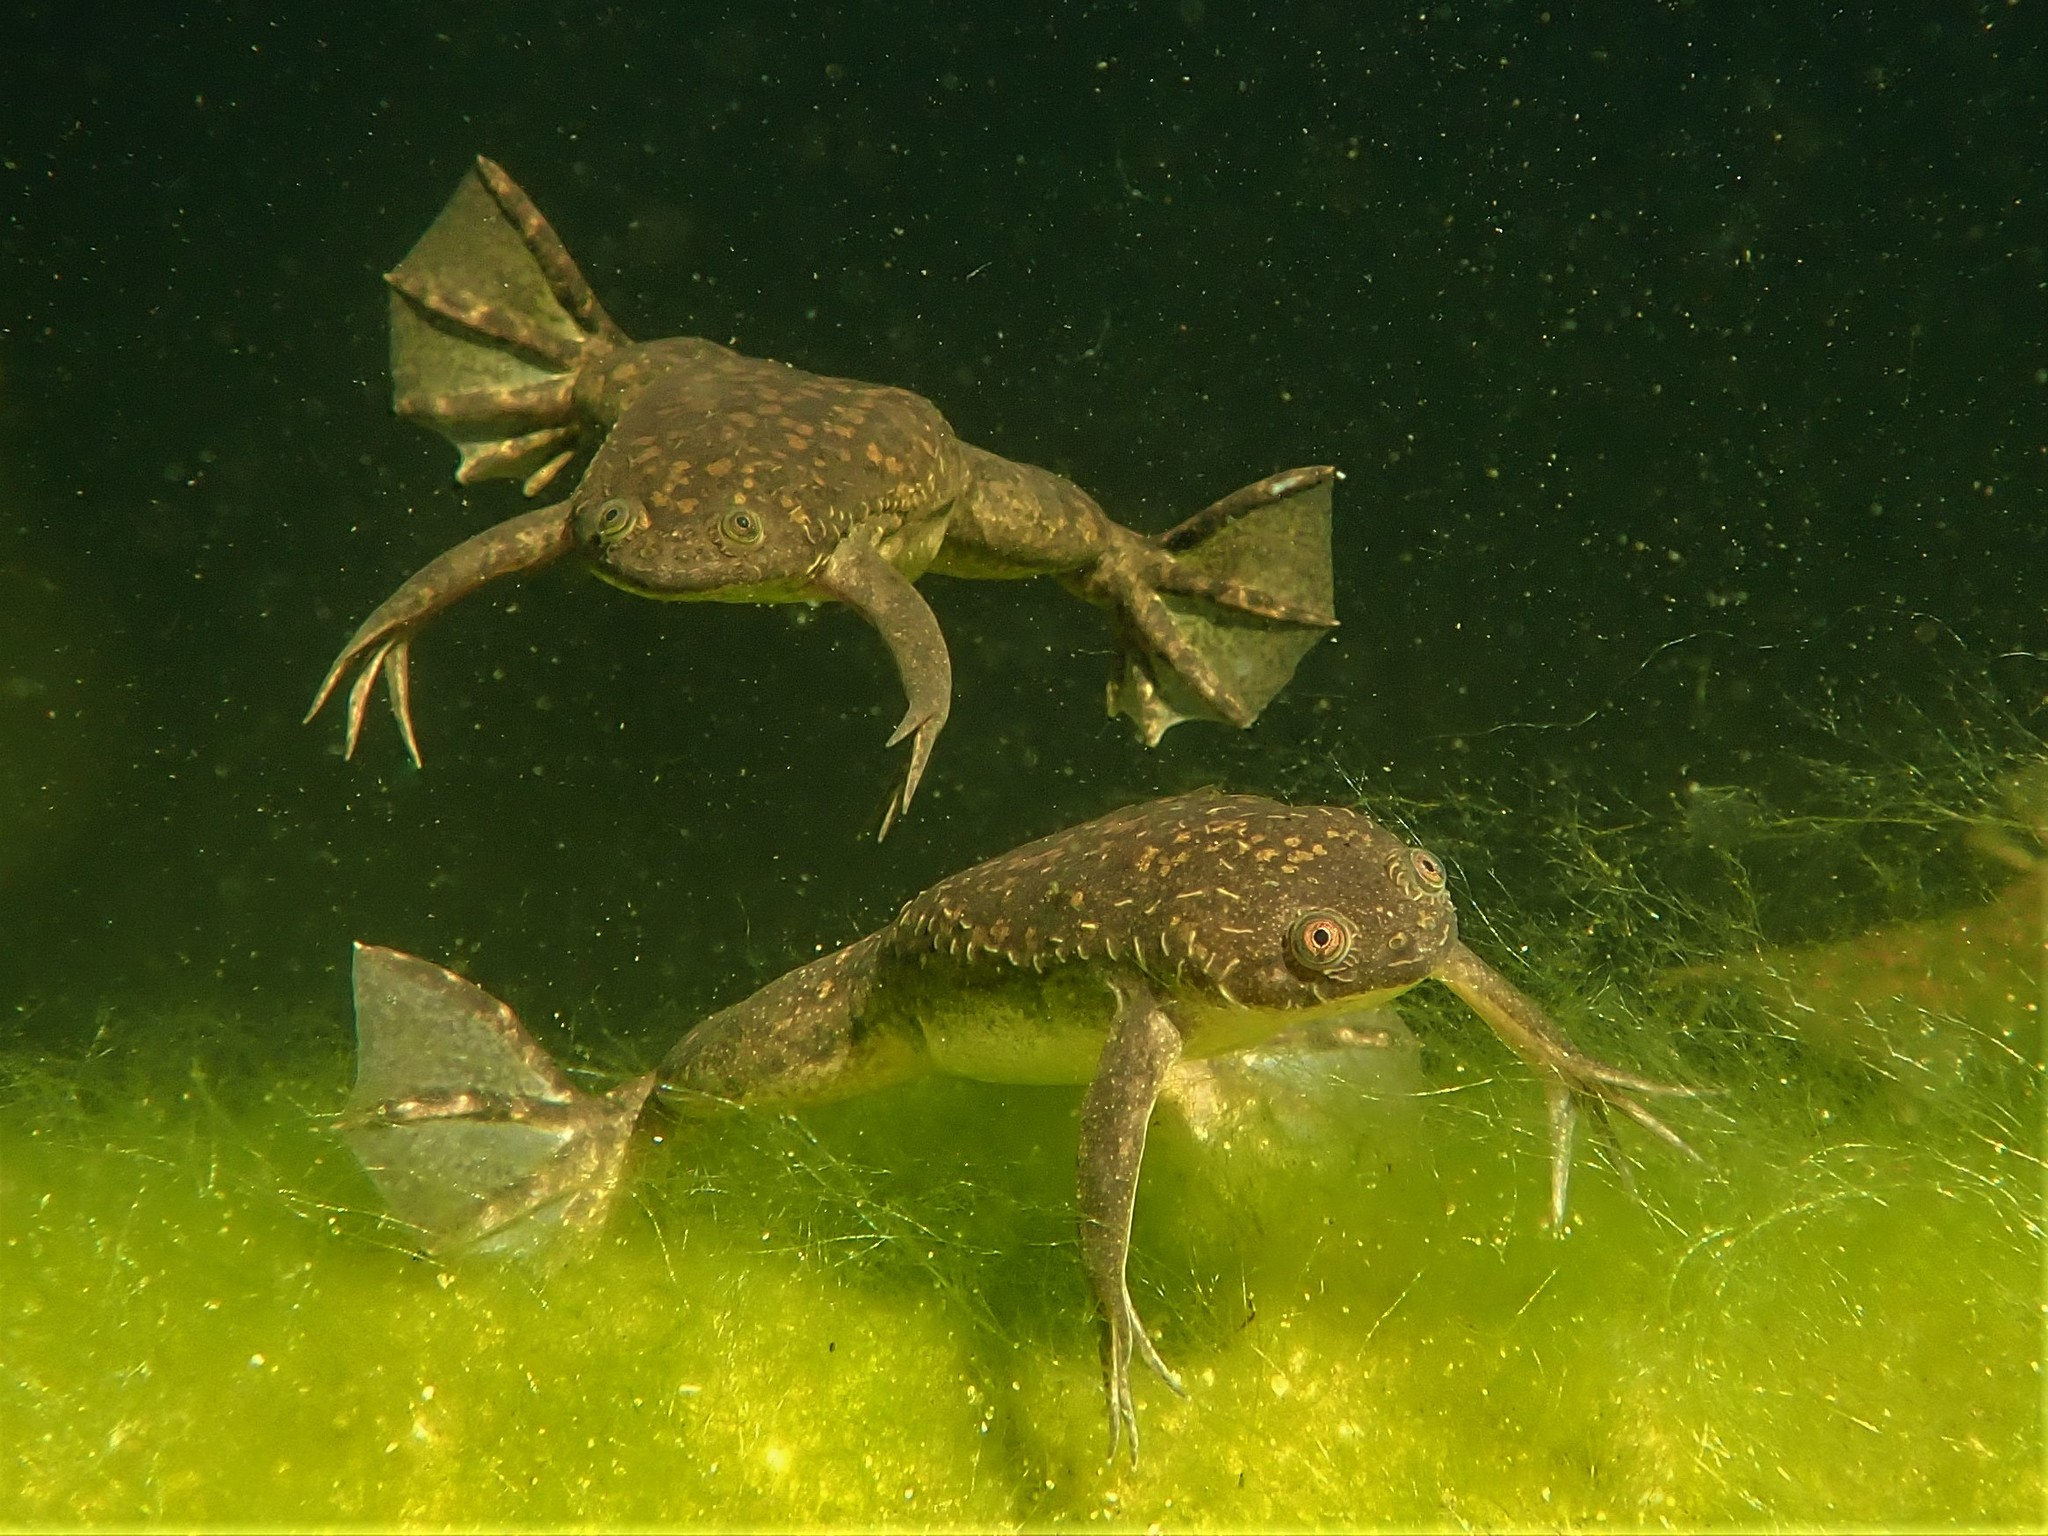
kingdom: Animalia
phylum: Chordata
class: Amphibia
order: Anura
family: Pipidae
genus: Xenopus
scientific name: Xenopus laevis
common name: African clawed frog
